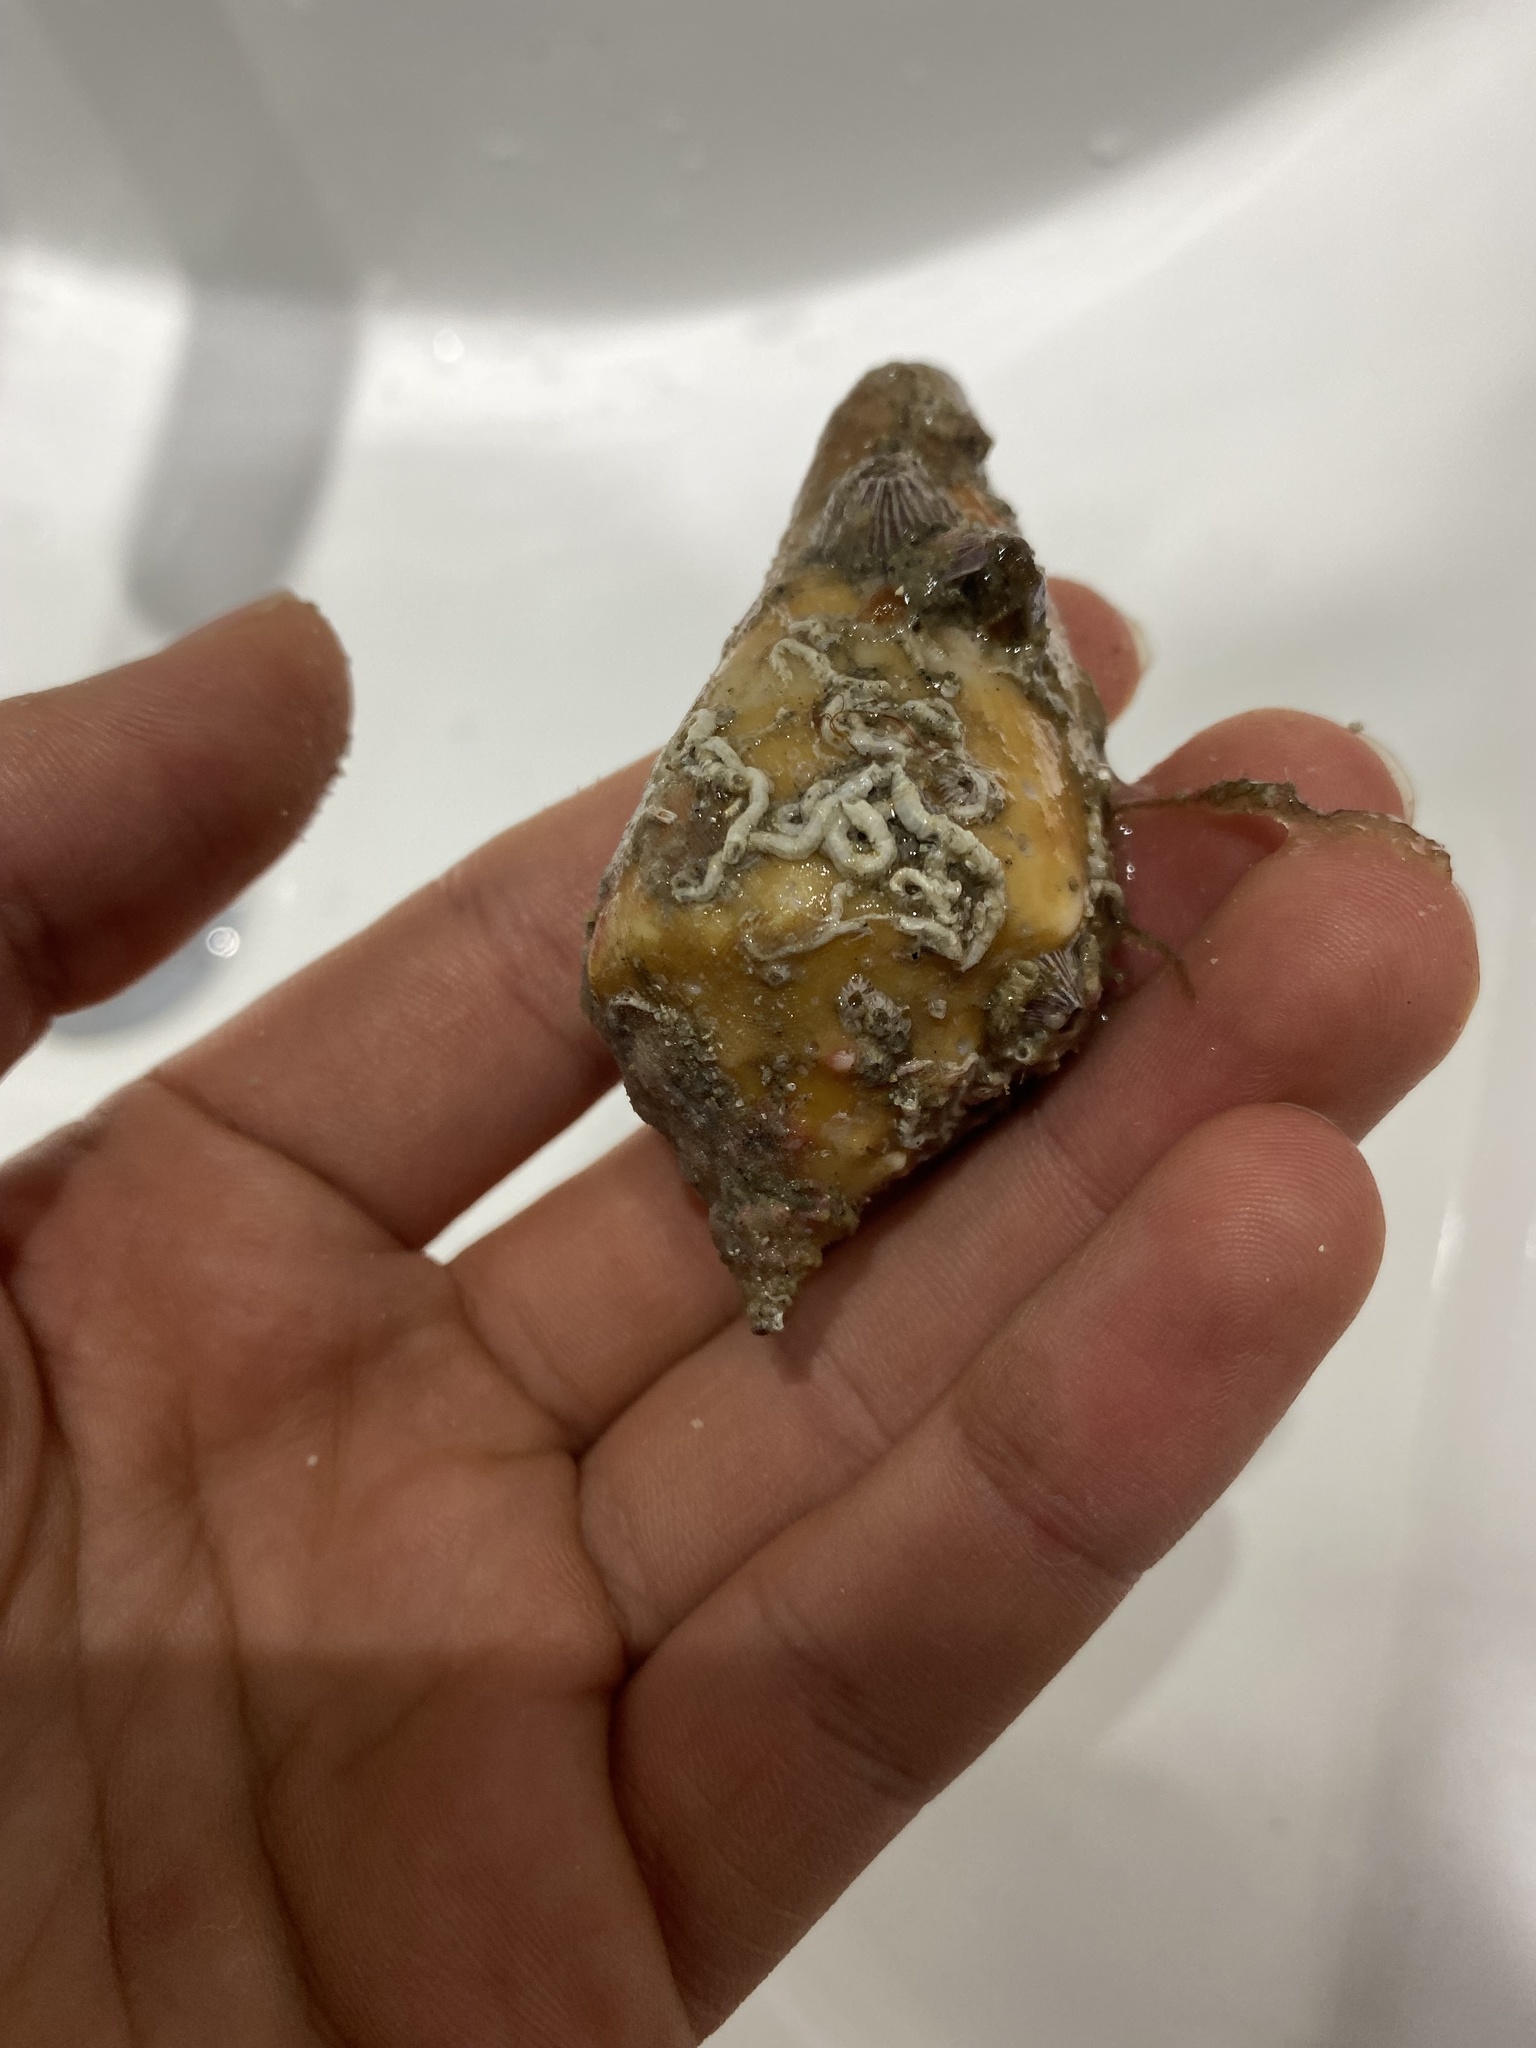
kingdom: Animalia
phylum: Mollusca
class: Gastropoda
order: Littorinimorpha
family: Strombidae
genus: Strombus
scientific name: Strombus gracilior
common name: Eastern pacific fighting conch
